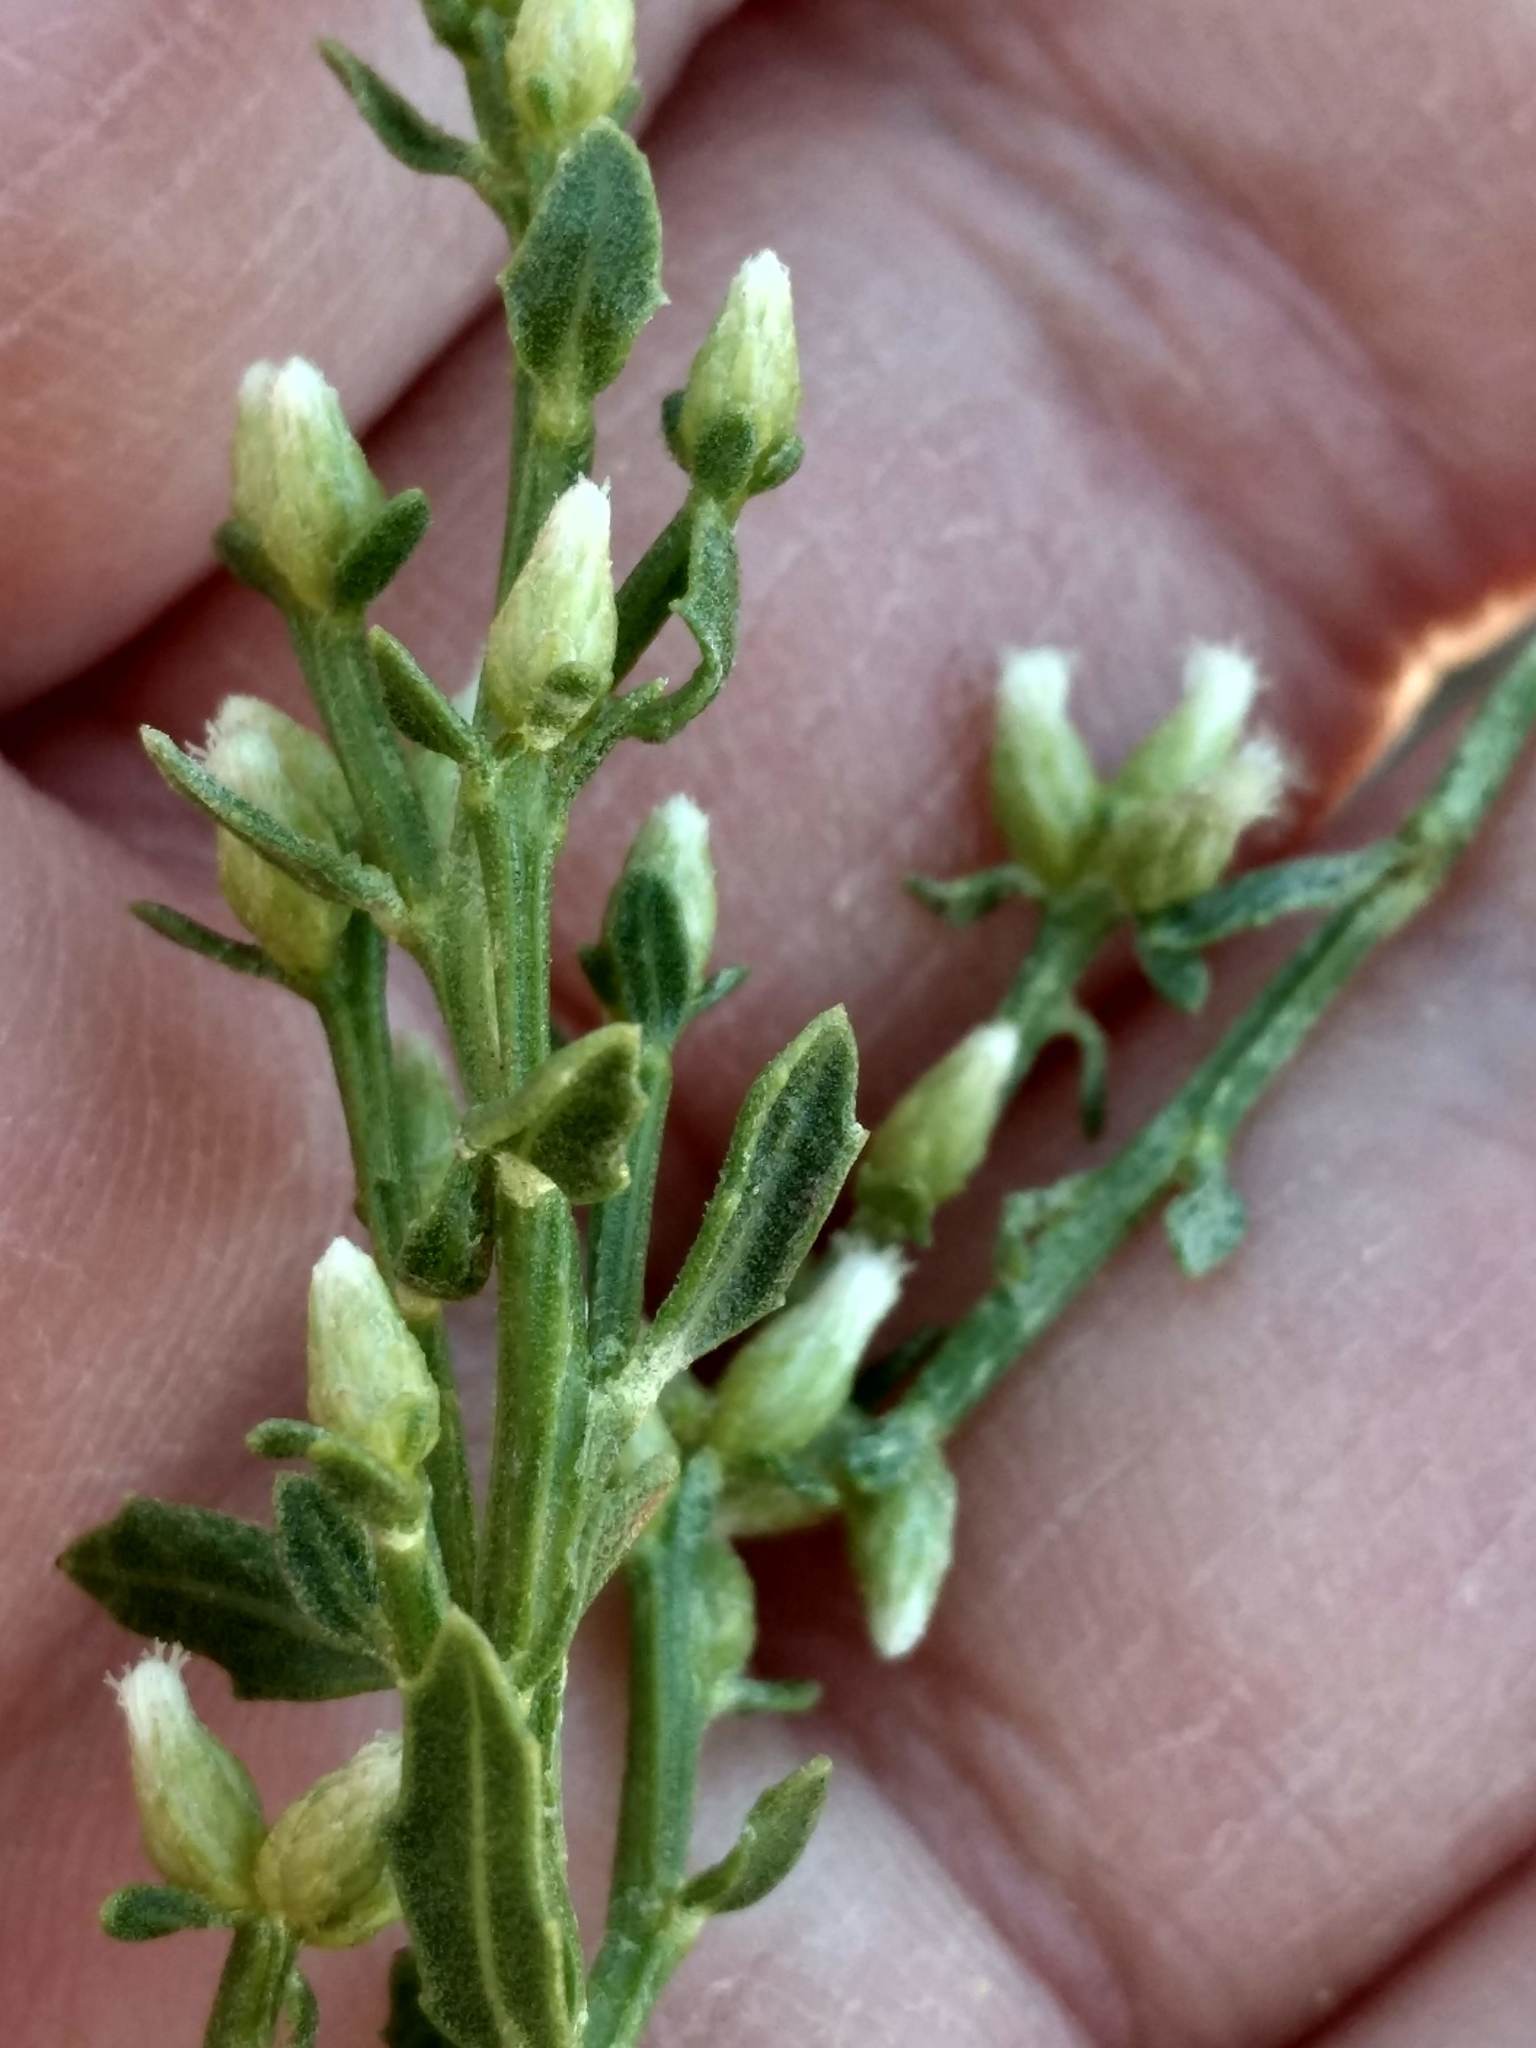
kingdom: Plantae
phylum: Tracheophyta
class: Magnoliopsida
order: Asterales
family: Asteraceae
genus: Baccharis
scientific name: Baccharis pilularis
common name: Coyotebrush
